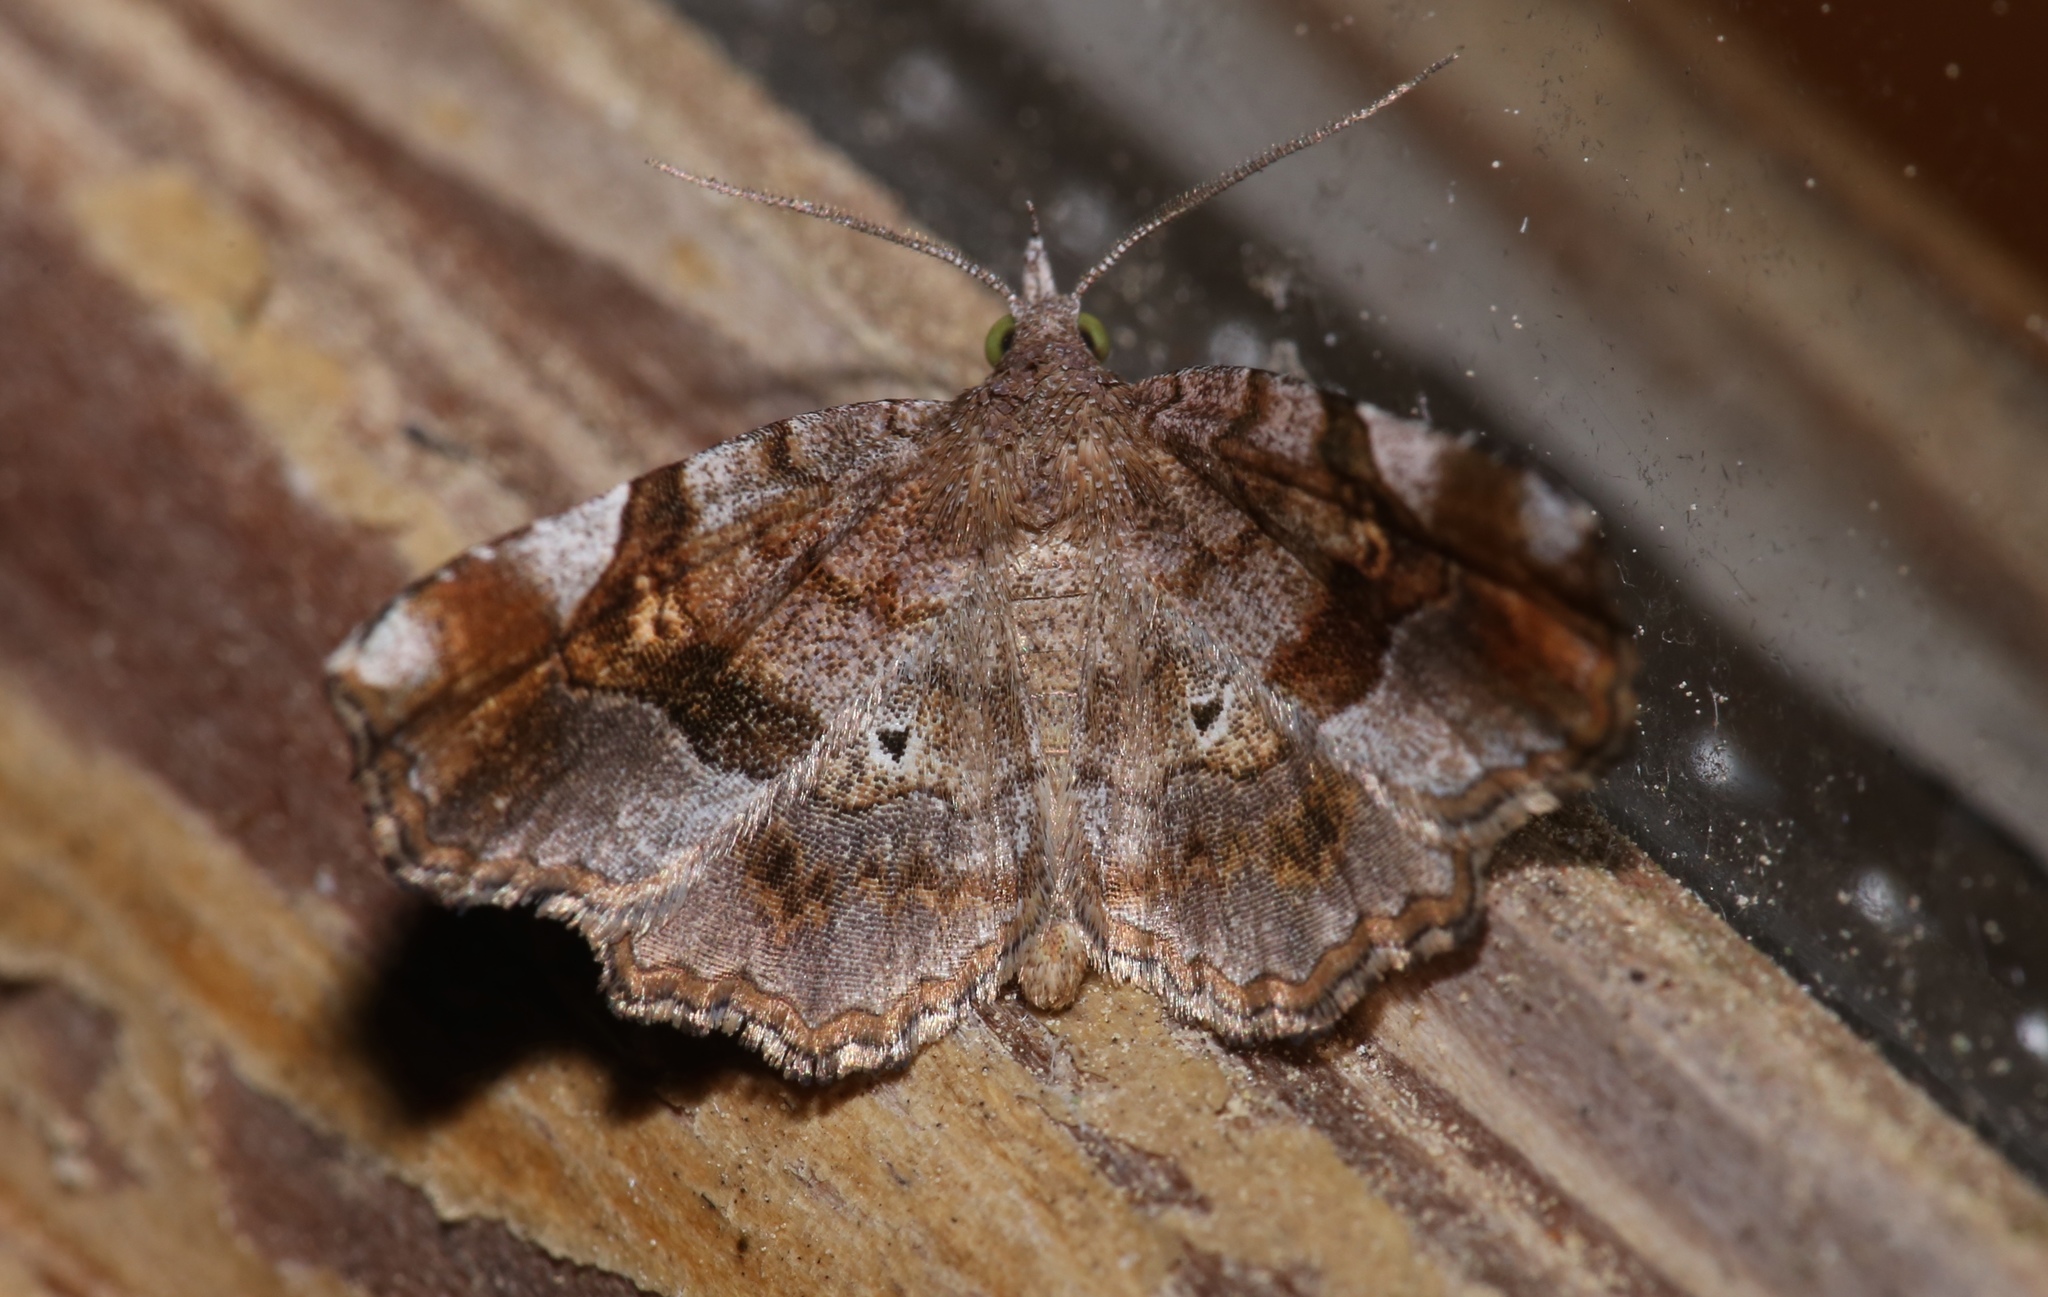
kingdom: Animalia
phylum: Arthropoda
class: Insecta
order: Lepidoptera
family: Erebidae
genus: Pangrapta
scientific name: Pangrapta decoralis
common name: Decorated owlet
